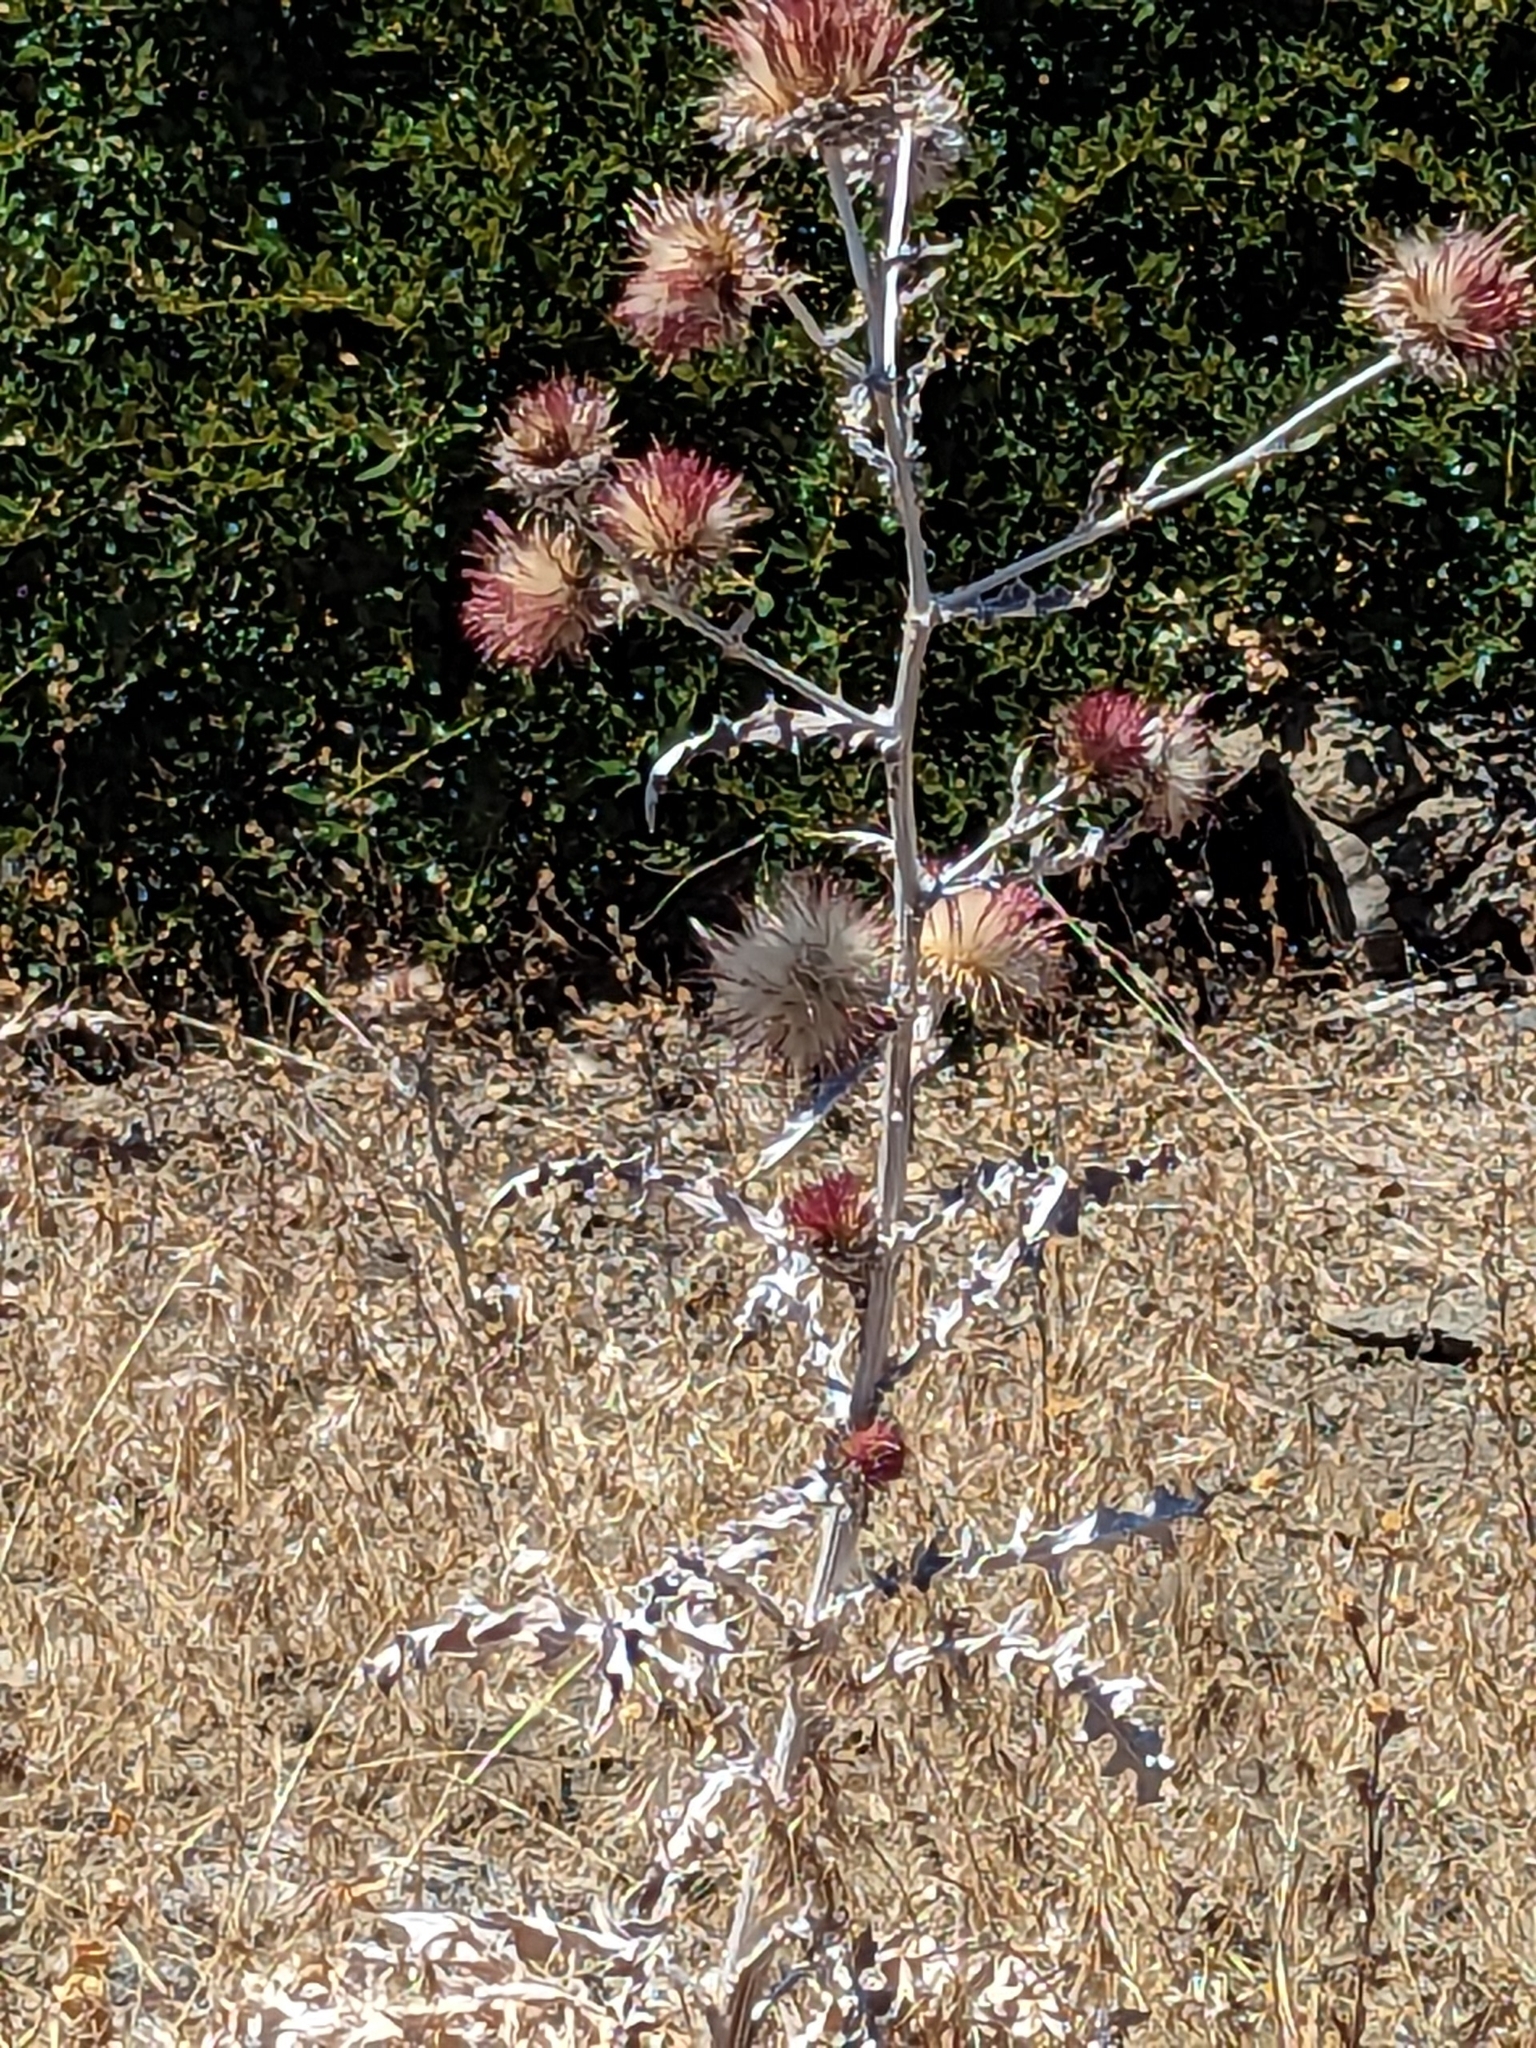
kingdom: Plantae
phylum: Tracheophyta
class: Magnoliopsida
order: Asterales
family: Asteraceae
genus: Cirsium
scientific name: Cirsium occidentale
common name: Western thistle
